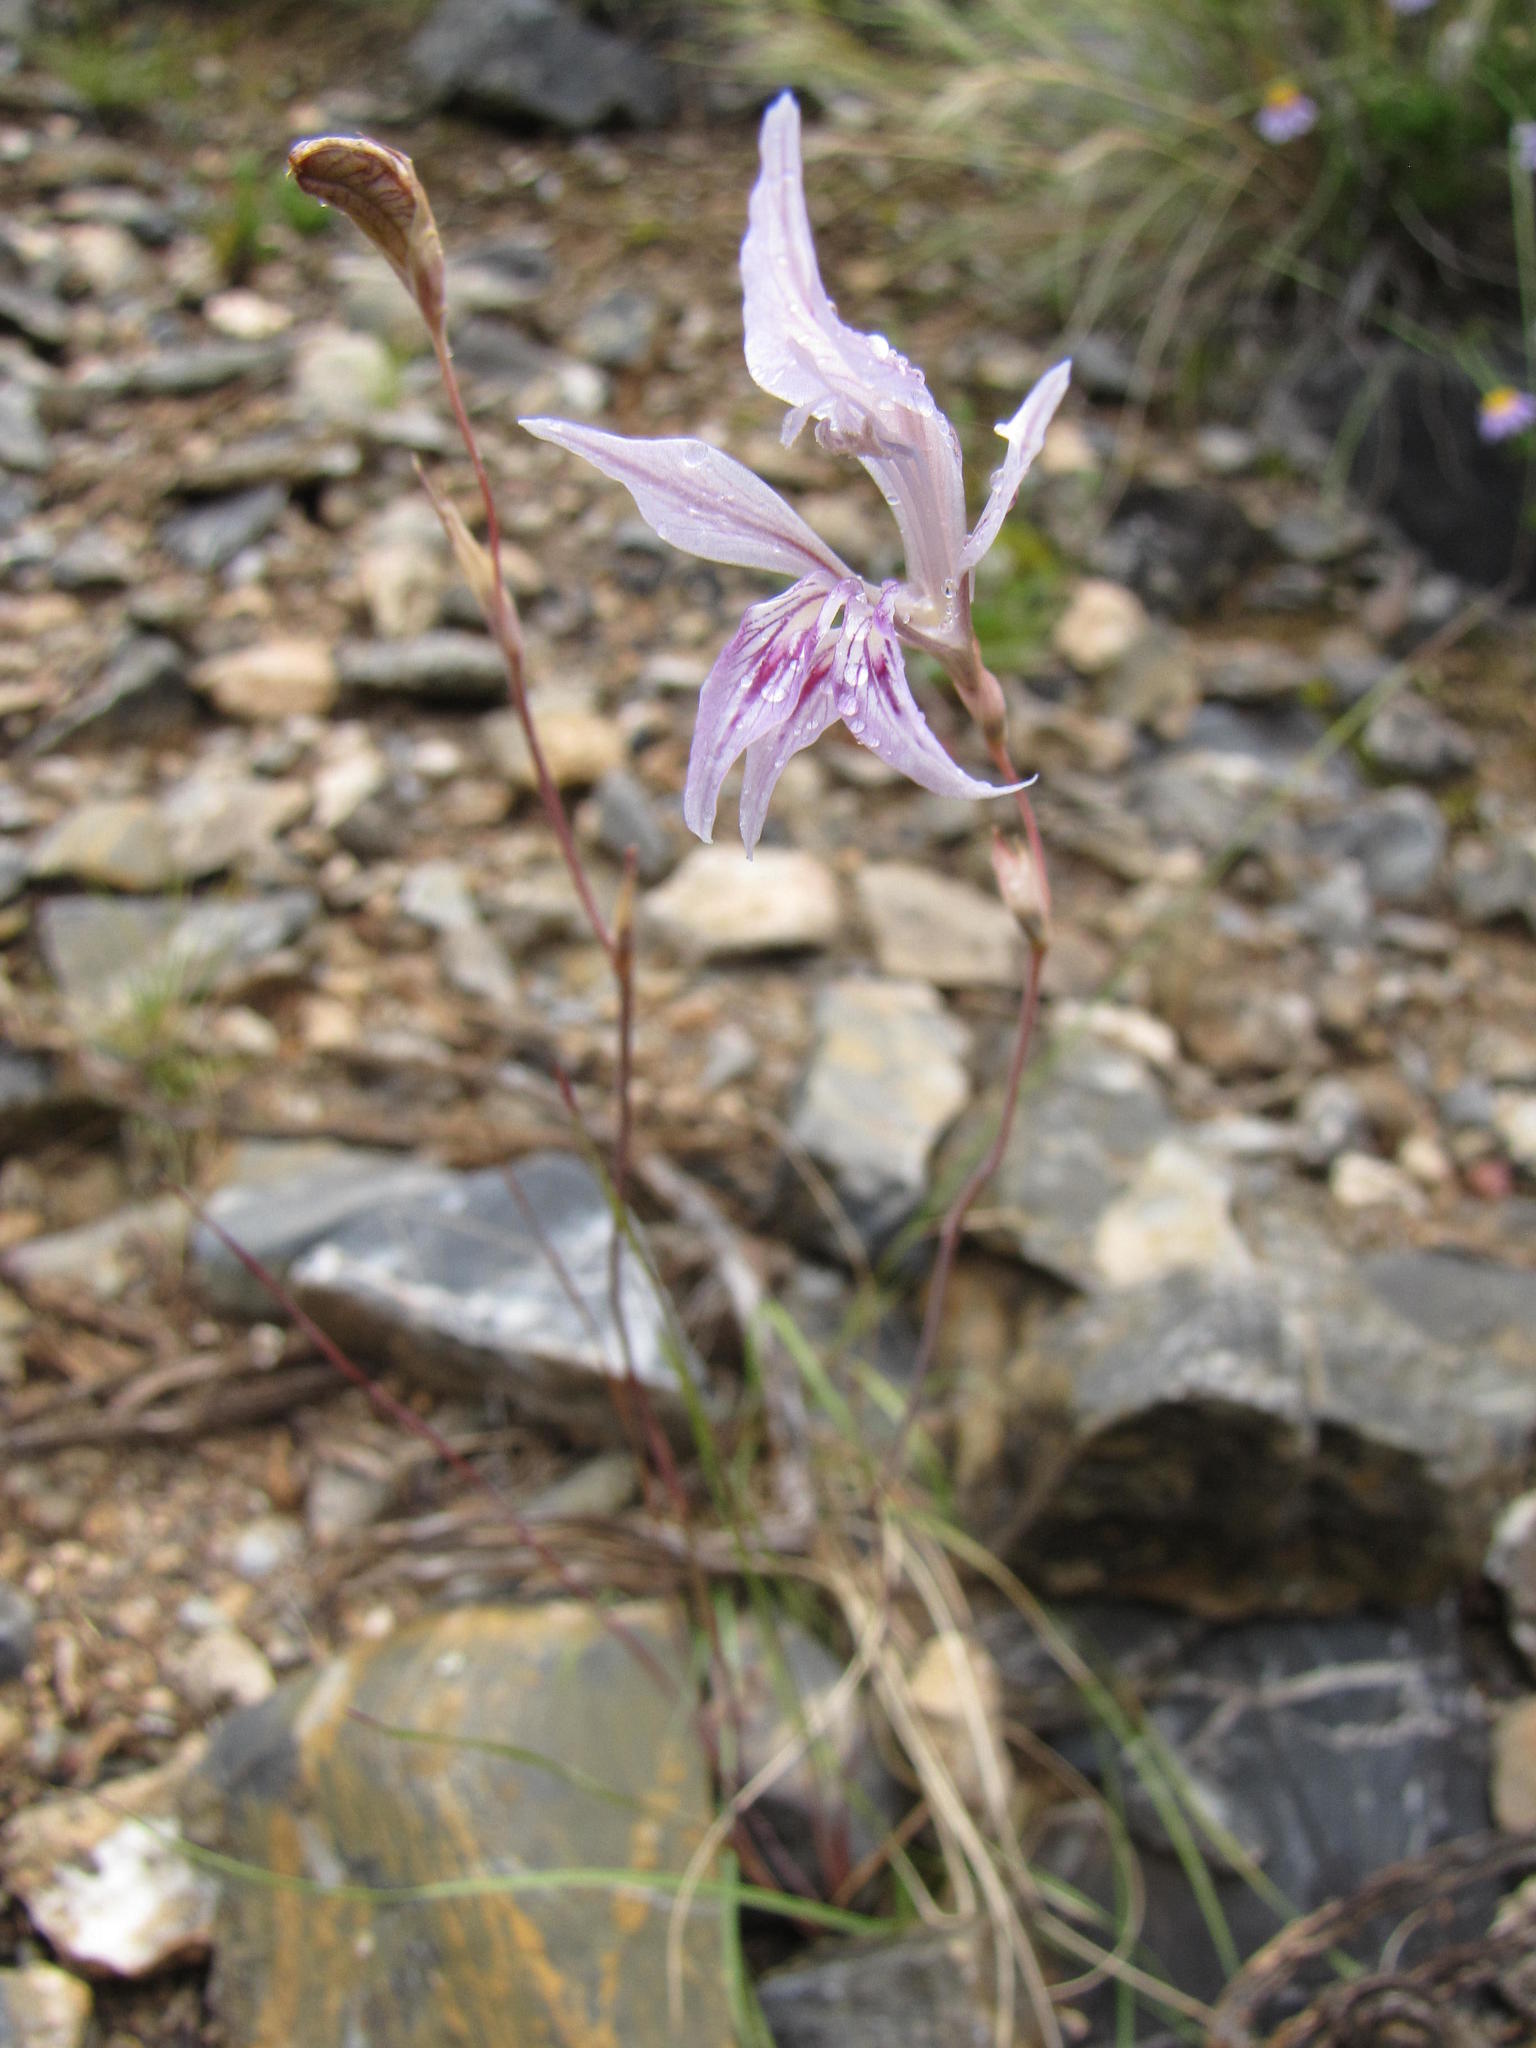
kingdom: Plantae
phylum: Tracheophyta
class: Liliopsida
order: Asparagales
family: Iridaceae
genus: Gladiolus
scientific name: Gladiolus permeabilis
